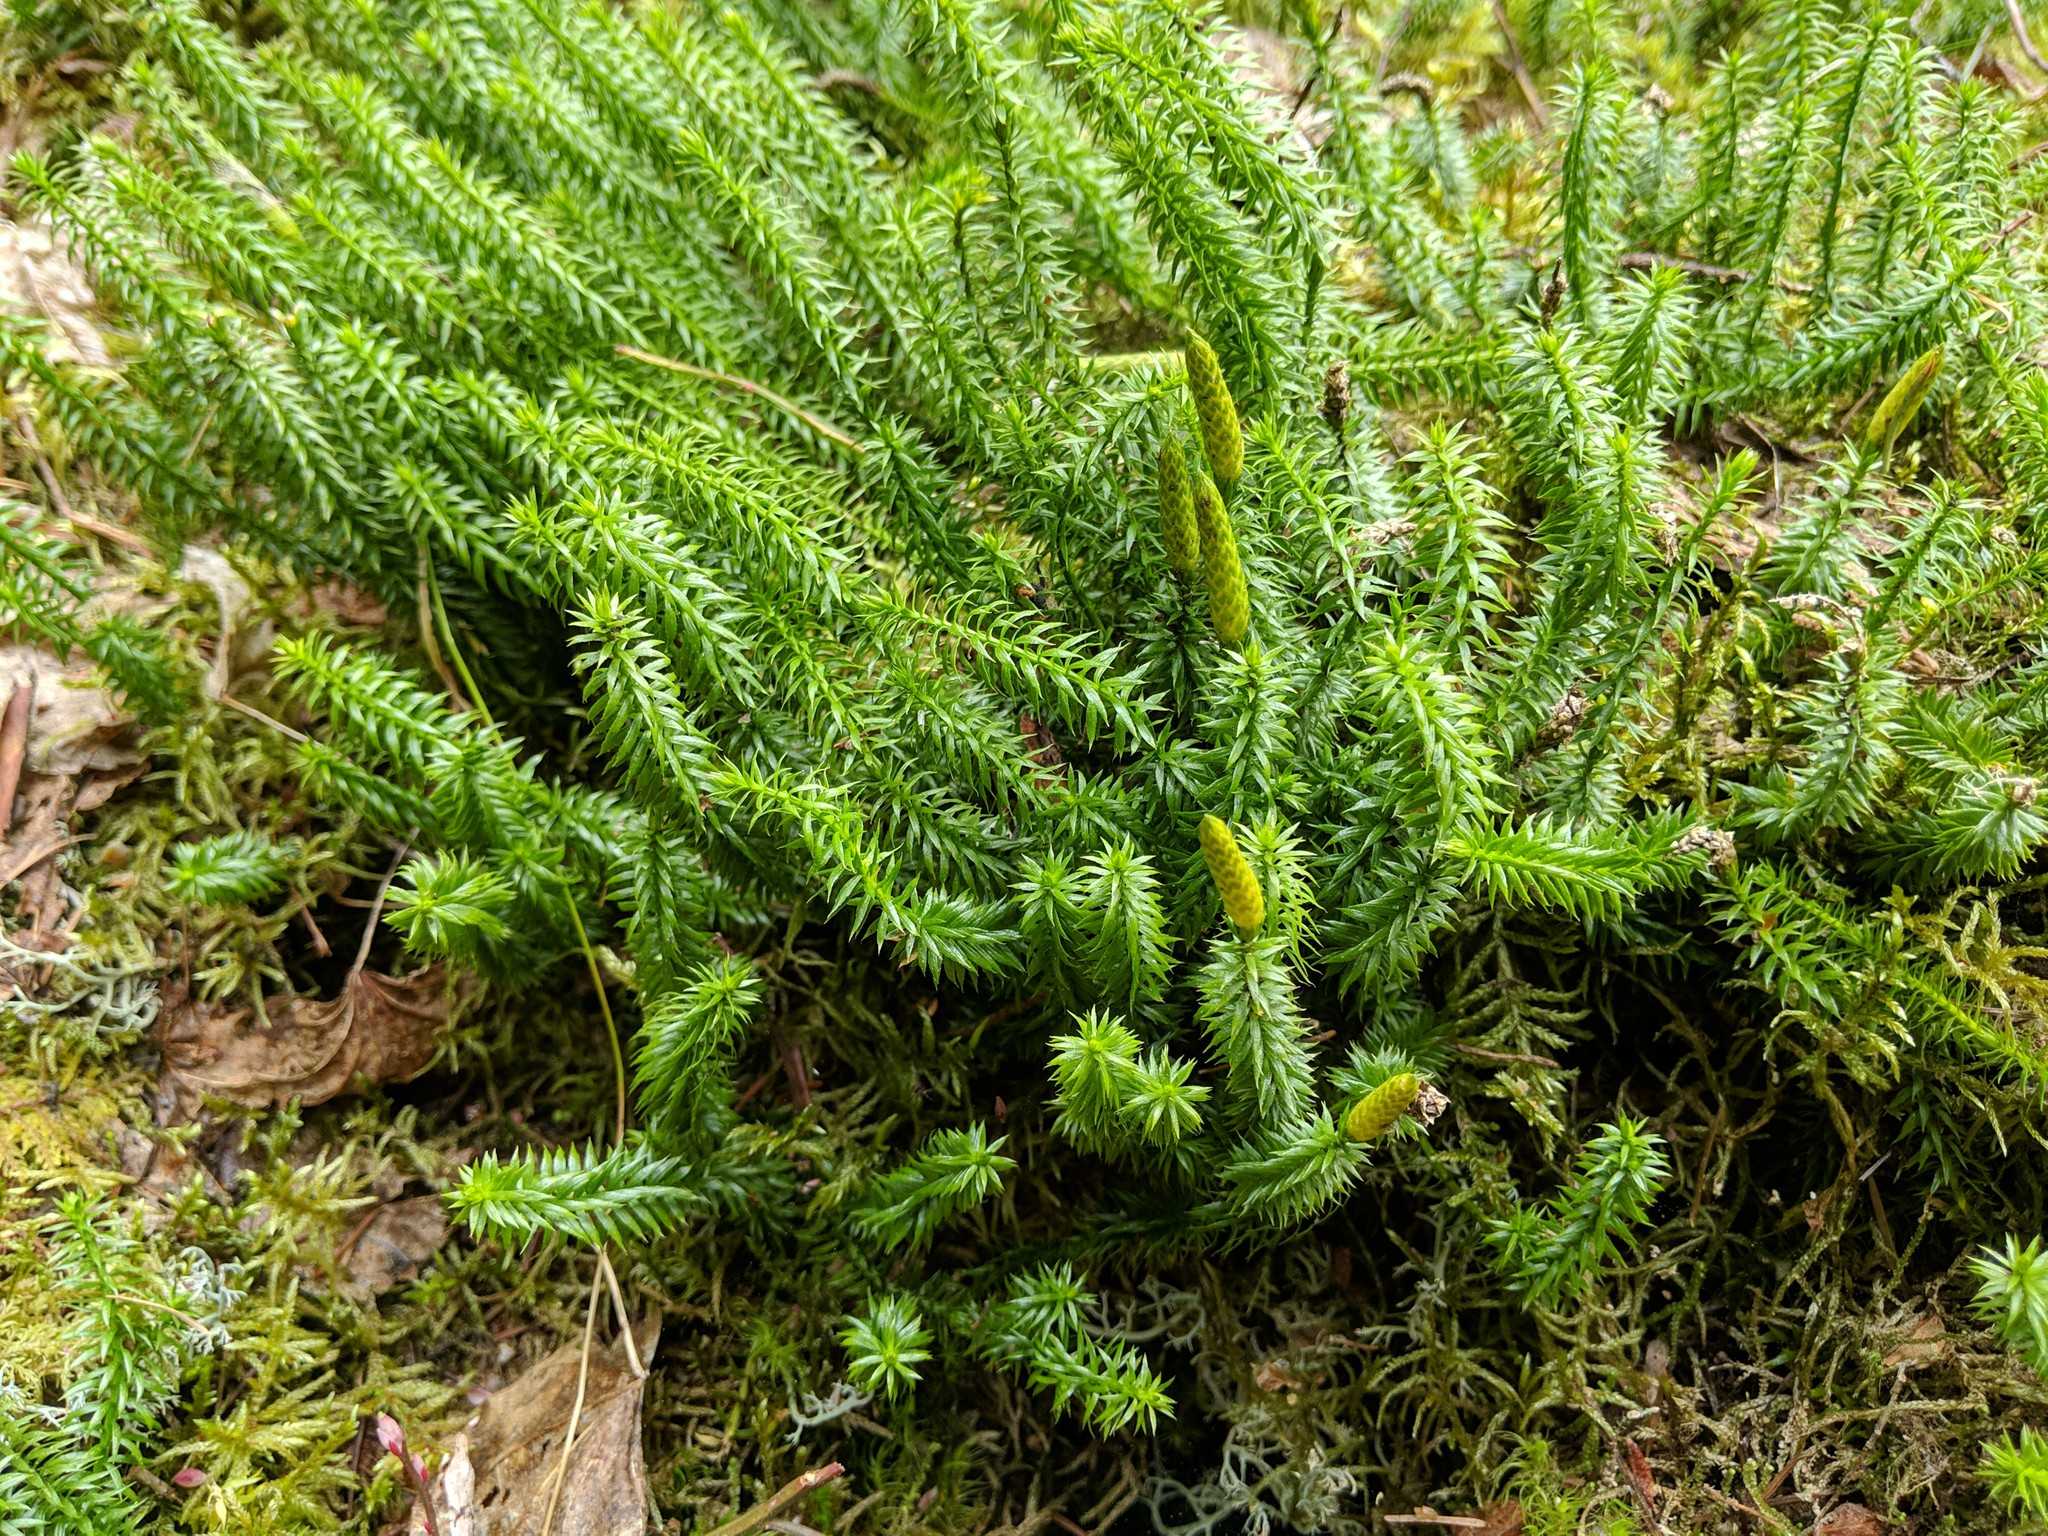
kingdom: Plantae
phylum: Tracheophyta
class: Lycopodiopsida
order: Lycopodiales
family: Lycopodiaceae
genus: Spinulum
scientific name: Spinulum annotinum
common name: Interrupted club-moss
